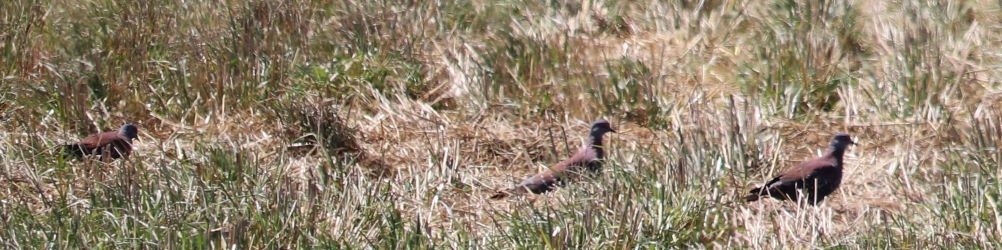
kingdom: Animalia
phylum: Chordata
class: Aves
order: Columbiformes
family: Columbidae
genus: Columba
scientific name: Columba guinea
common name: Speckled pigeon
